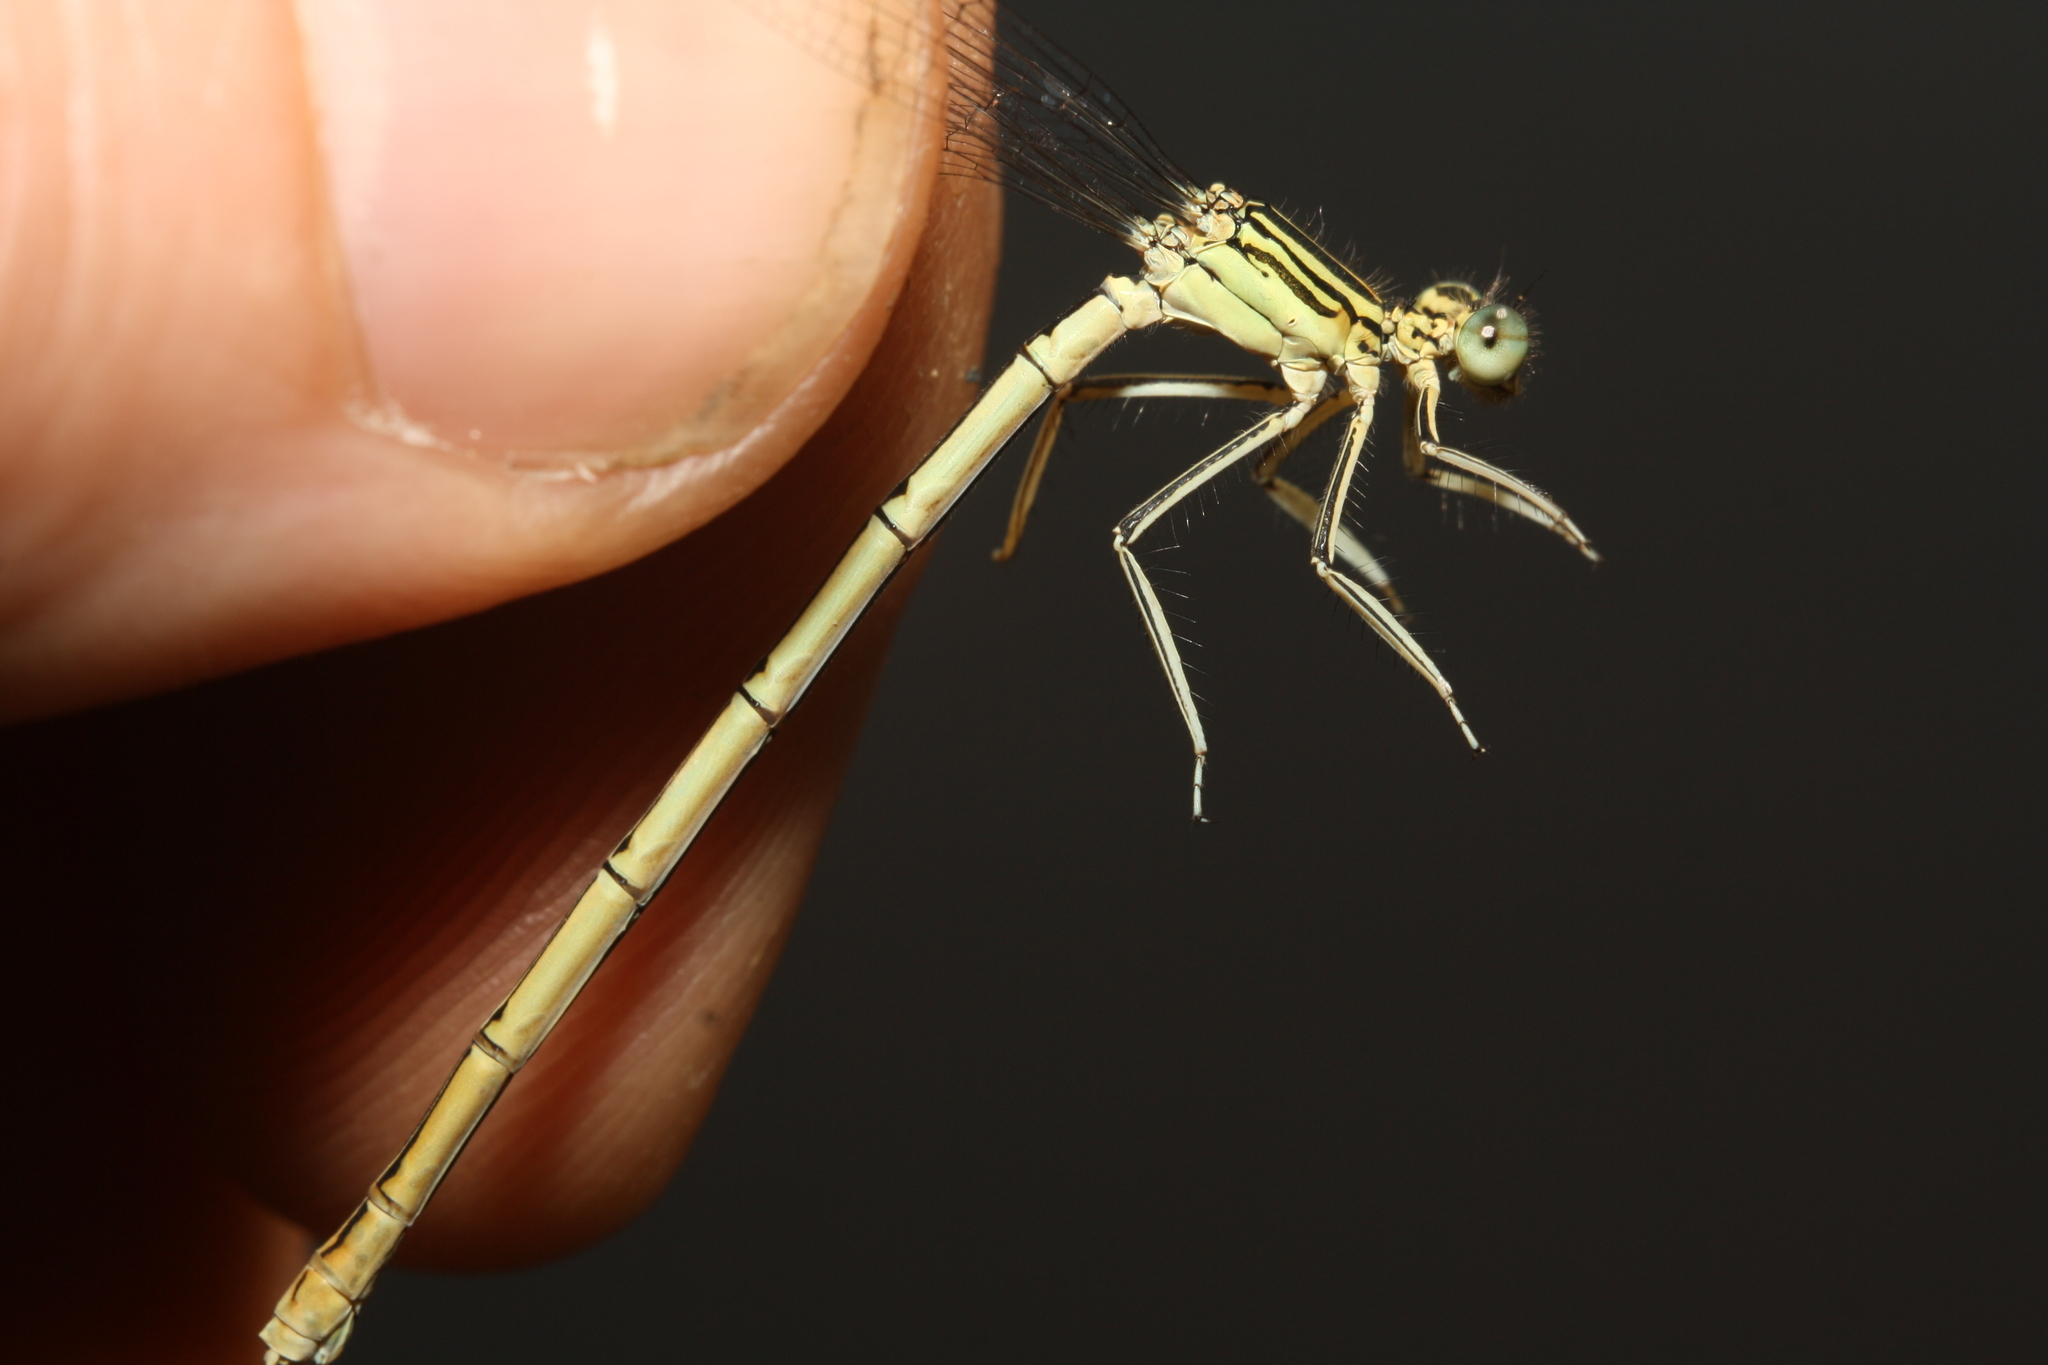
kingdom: Animalia
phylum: Arthropoda
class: Insecta
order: Odonata
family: Platycnemididae
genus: Platycnemis
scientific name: Platycnemis pennipes
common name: White-legged damselfly
